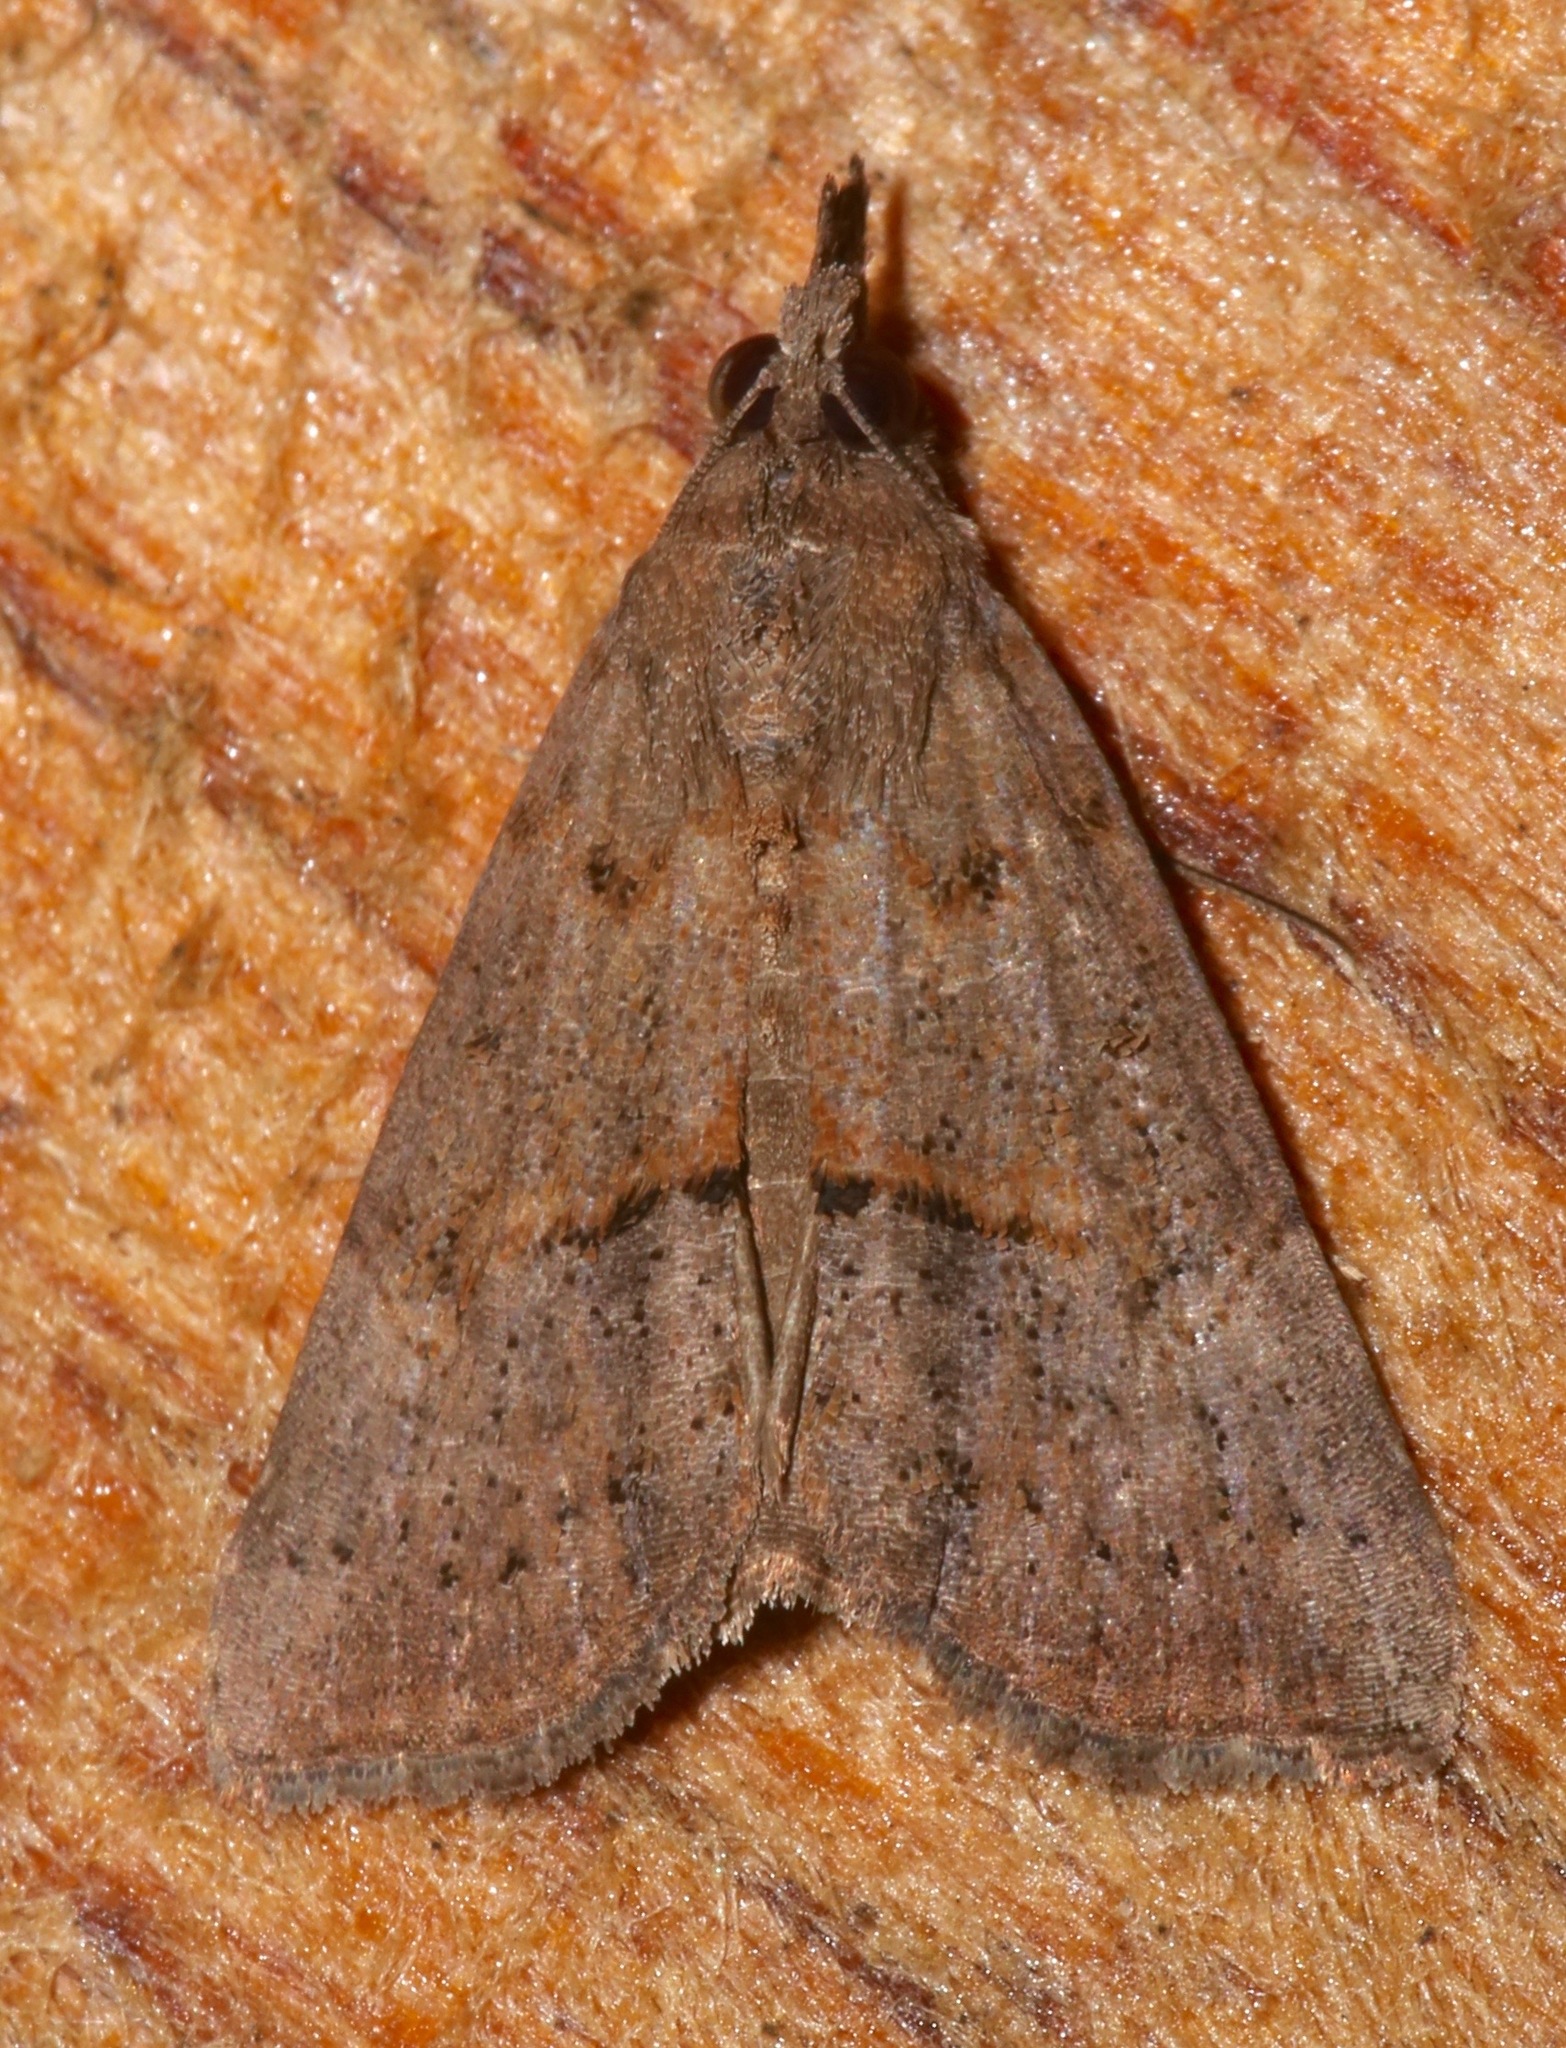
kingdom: Animalia
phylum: Arthropoda
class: Insecta
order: Lepidoptera
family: Erebidae
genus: Hypena
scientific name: Hypena scabra
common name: Green cloverworm
